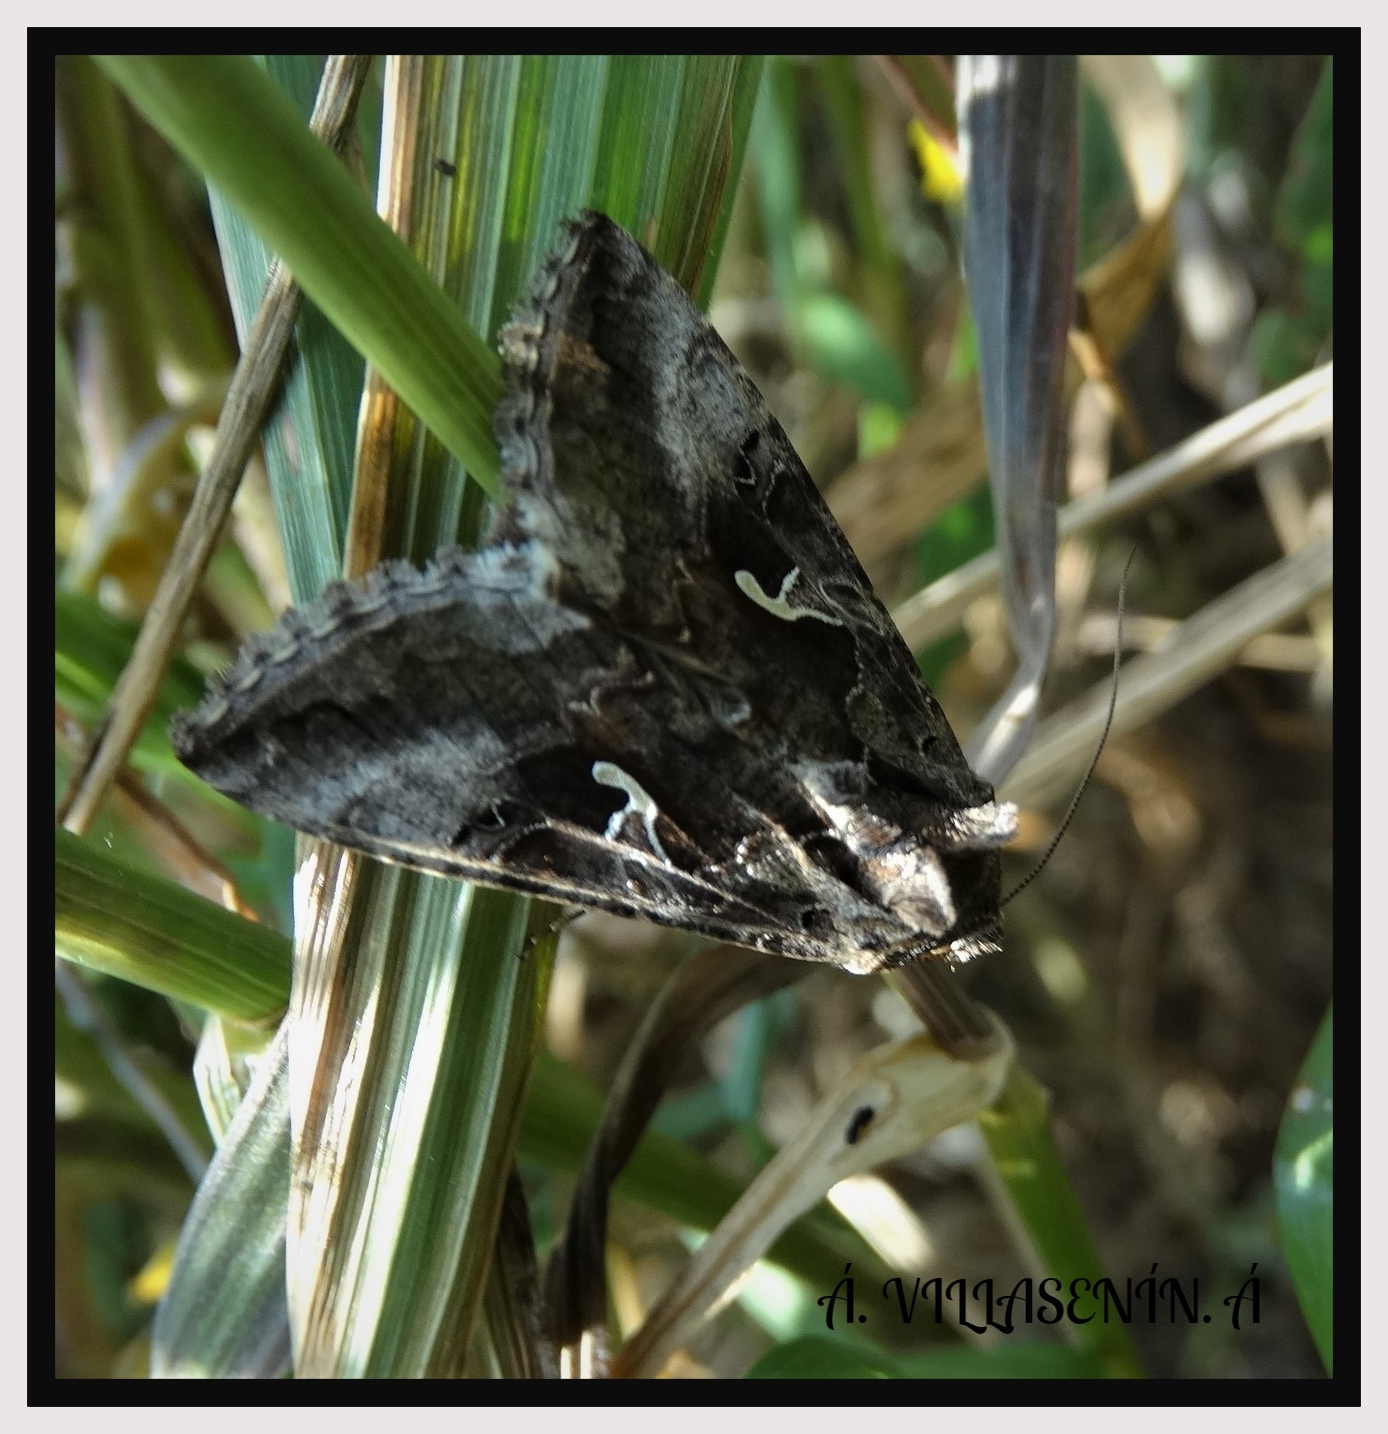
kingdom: Animalia
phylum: Arthropoda
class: Insecta
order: Lepidoptera
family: Noctuidae
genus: Autographa
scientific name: Autographa gamma
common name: Silver y
